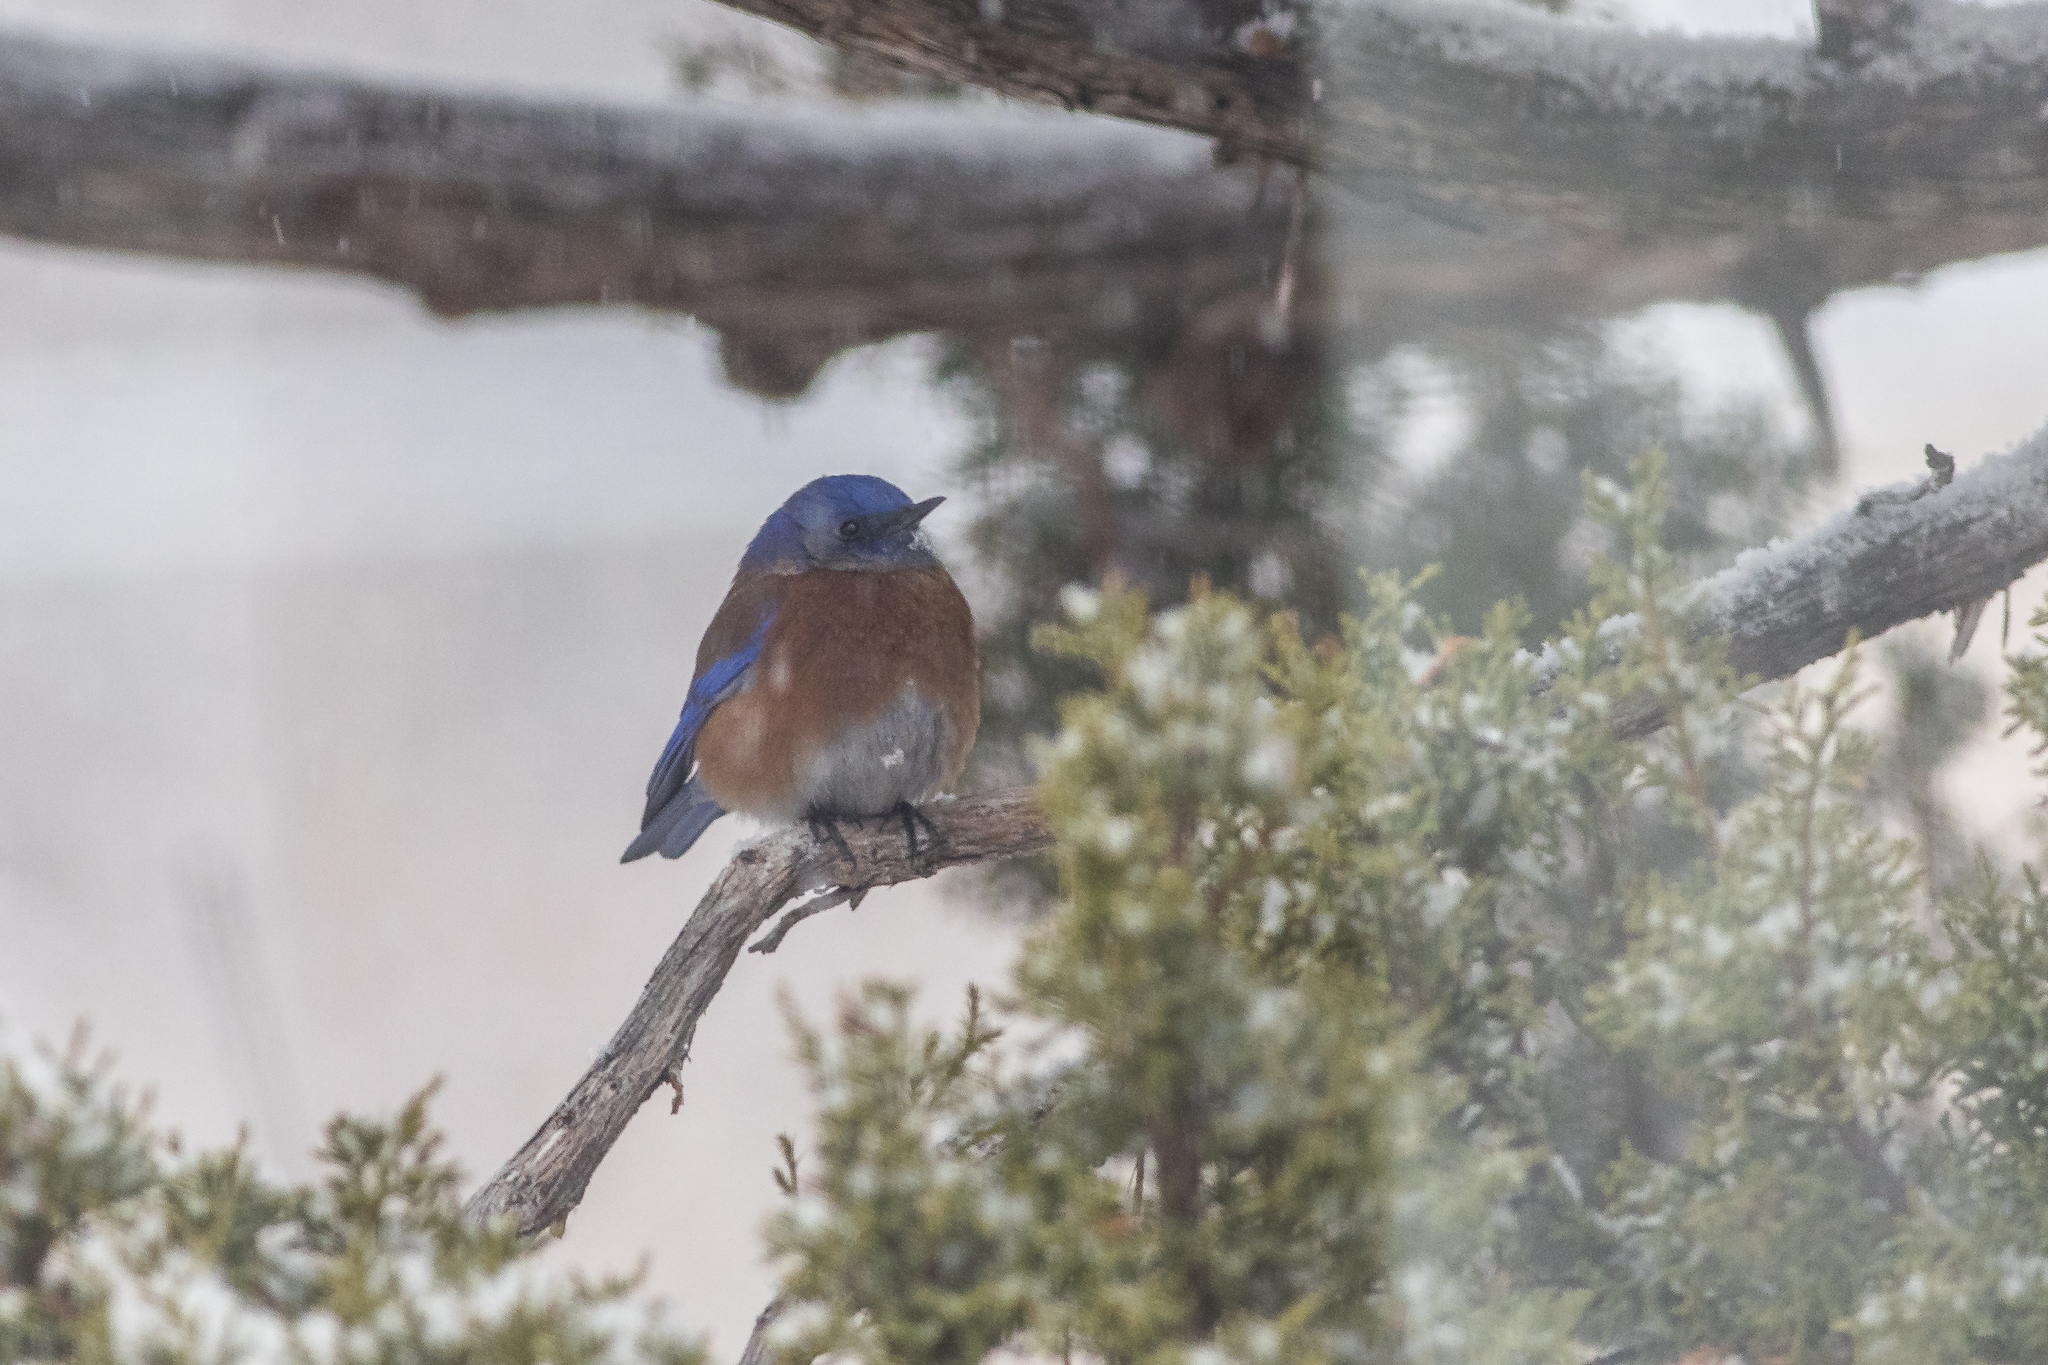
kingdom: Animalia
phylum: Chordata
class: Aves
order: Passeriformes
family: Turdidae
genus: Sialia
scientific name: Sialia mexicana
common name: Western bluebird
